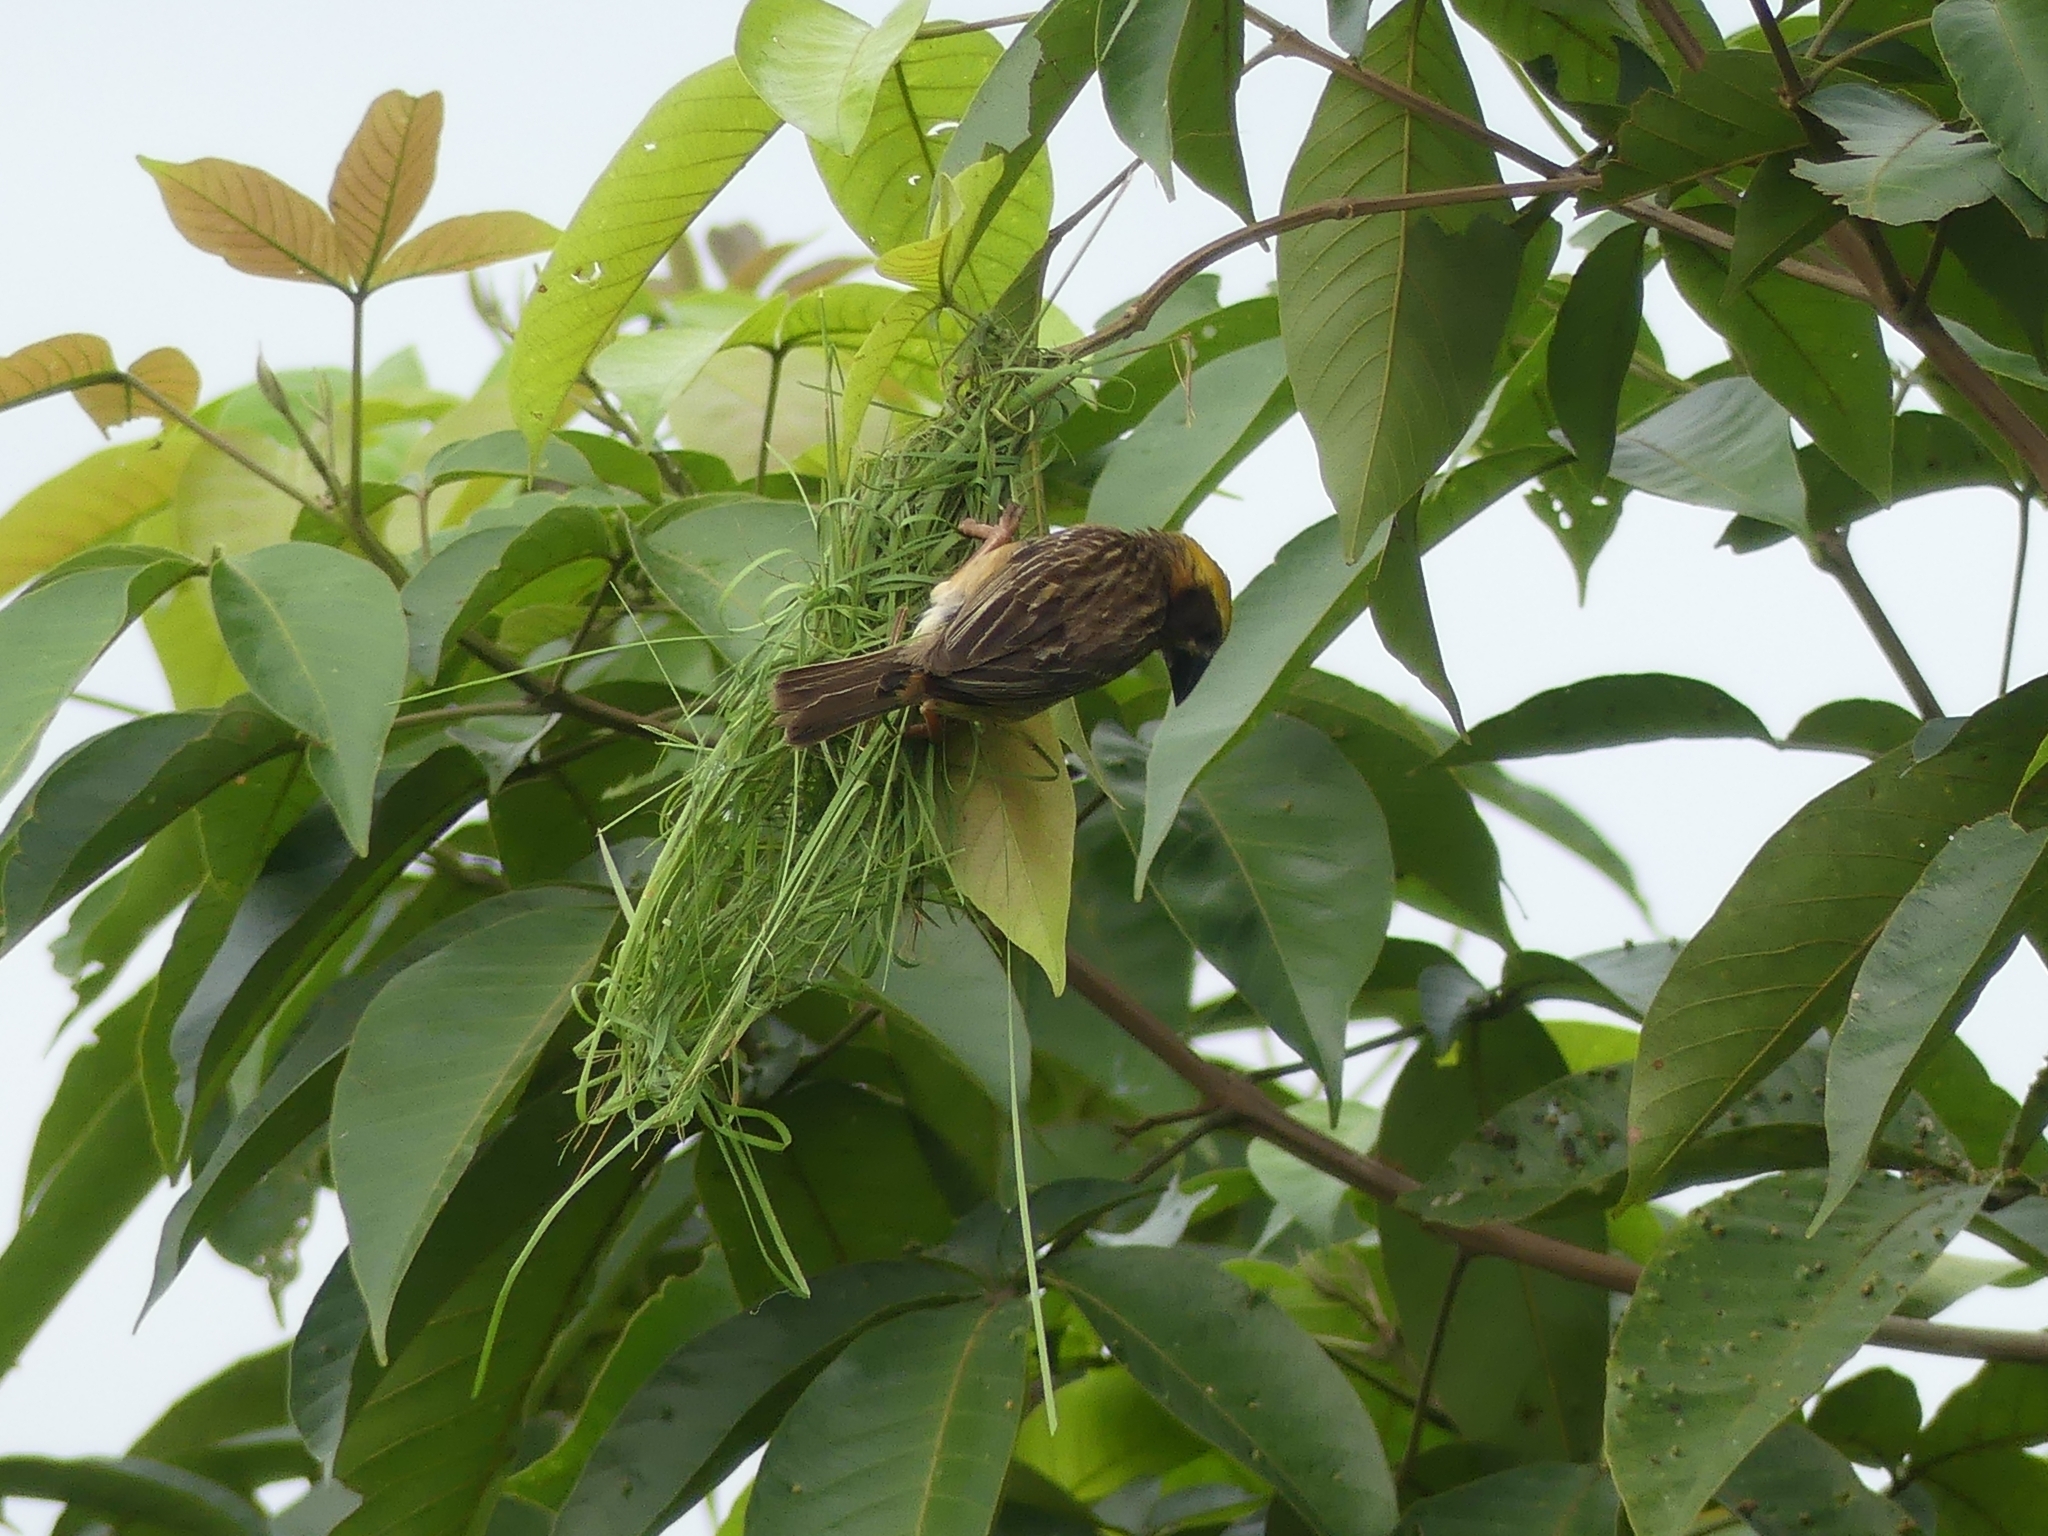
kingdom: Animalia
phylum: Chordata
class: Aves
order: Passeriformes
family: Ploceidae
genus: Ploceus
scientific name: Ploceus philippinus
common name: Baya weaver
